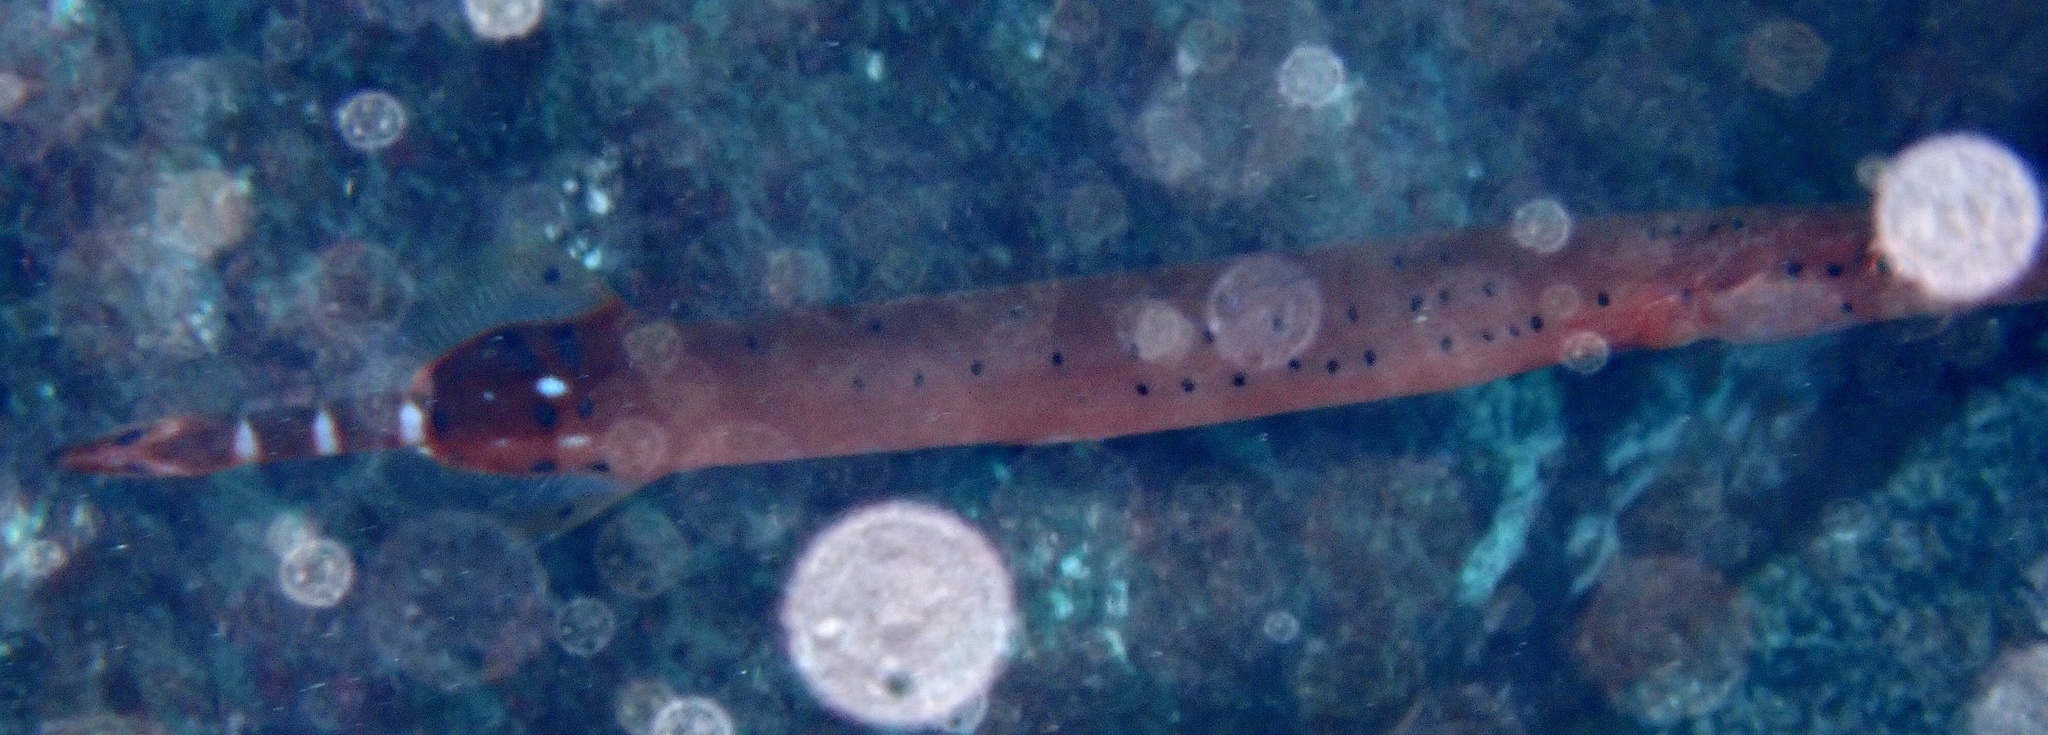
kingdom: Animalia
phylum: Chordata
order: Syngnathiformes
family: Aulostomidae
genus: Aulostomus
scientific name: Aulostomus strigosus
